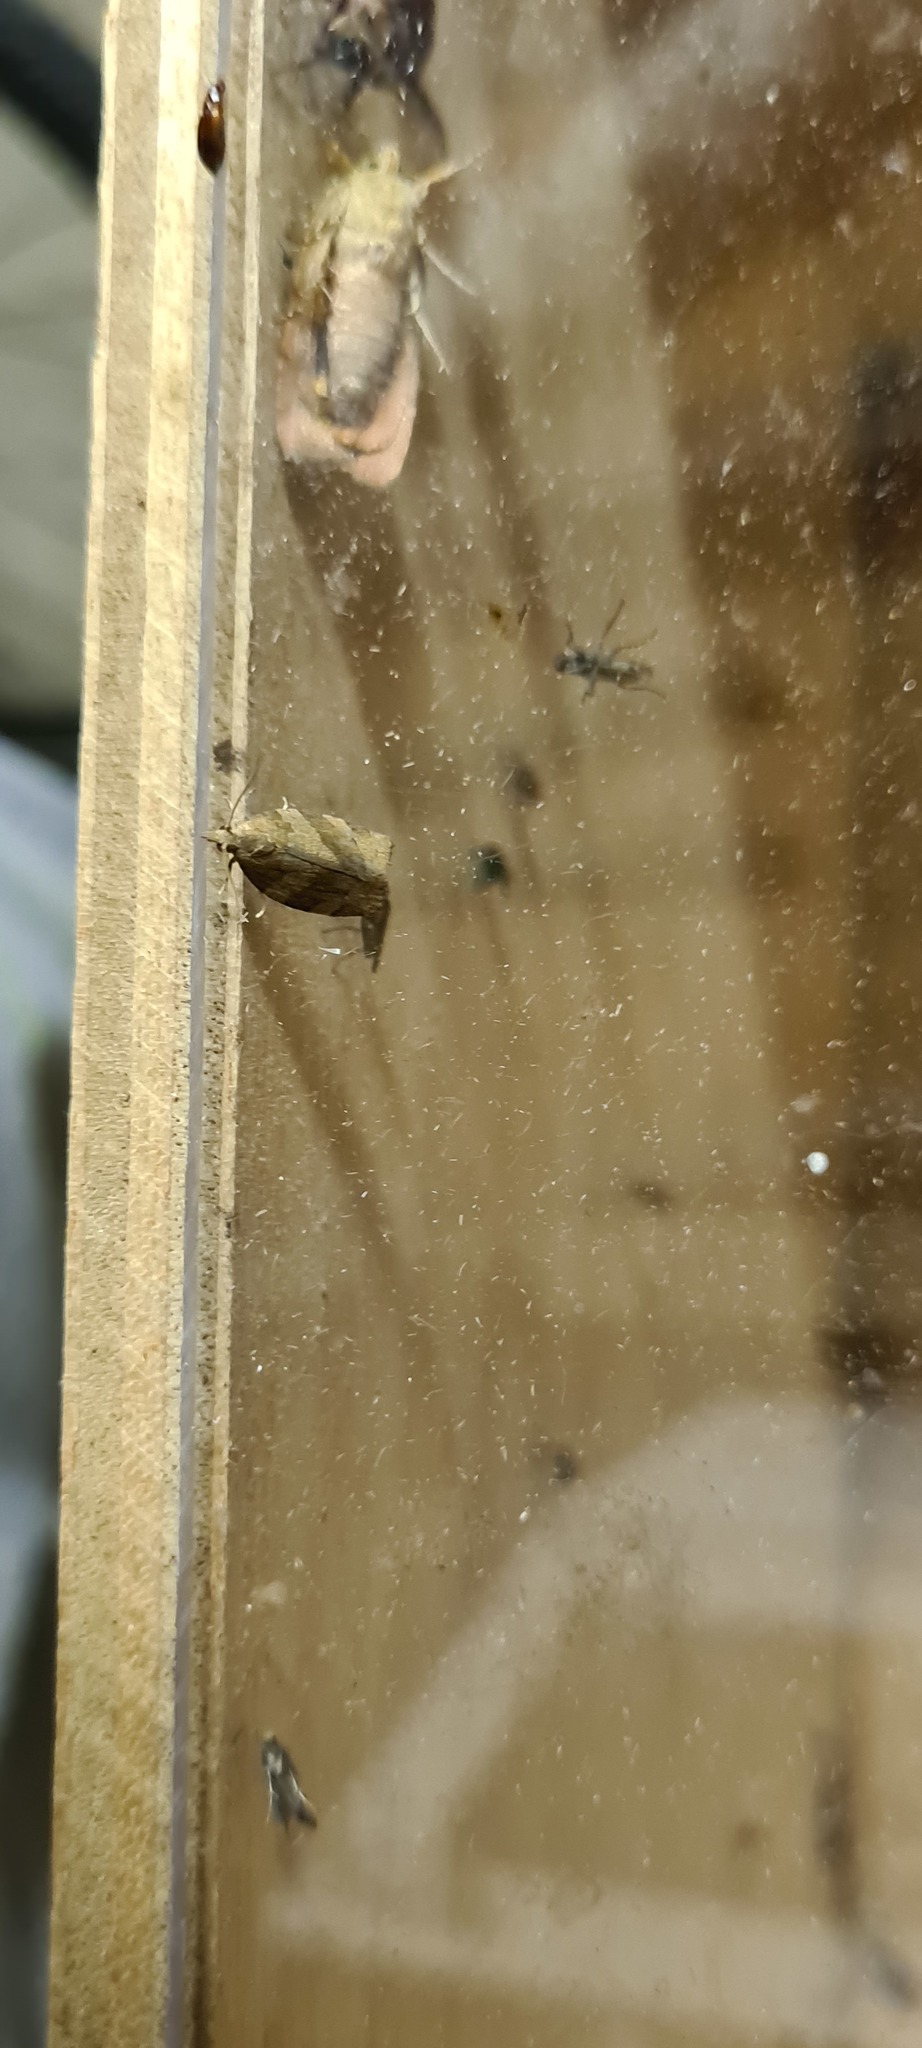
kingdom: Animalia
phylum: Arthropoda
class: Insecta
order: Lepidoptera
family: Tortricidae
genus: Pandemis
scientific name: Pandemis heparana
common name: Dark fruit-tree tortrix
